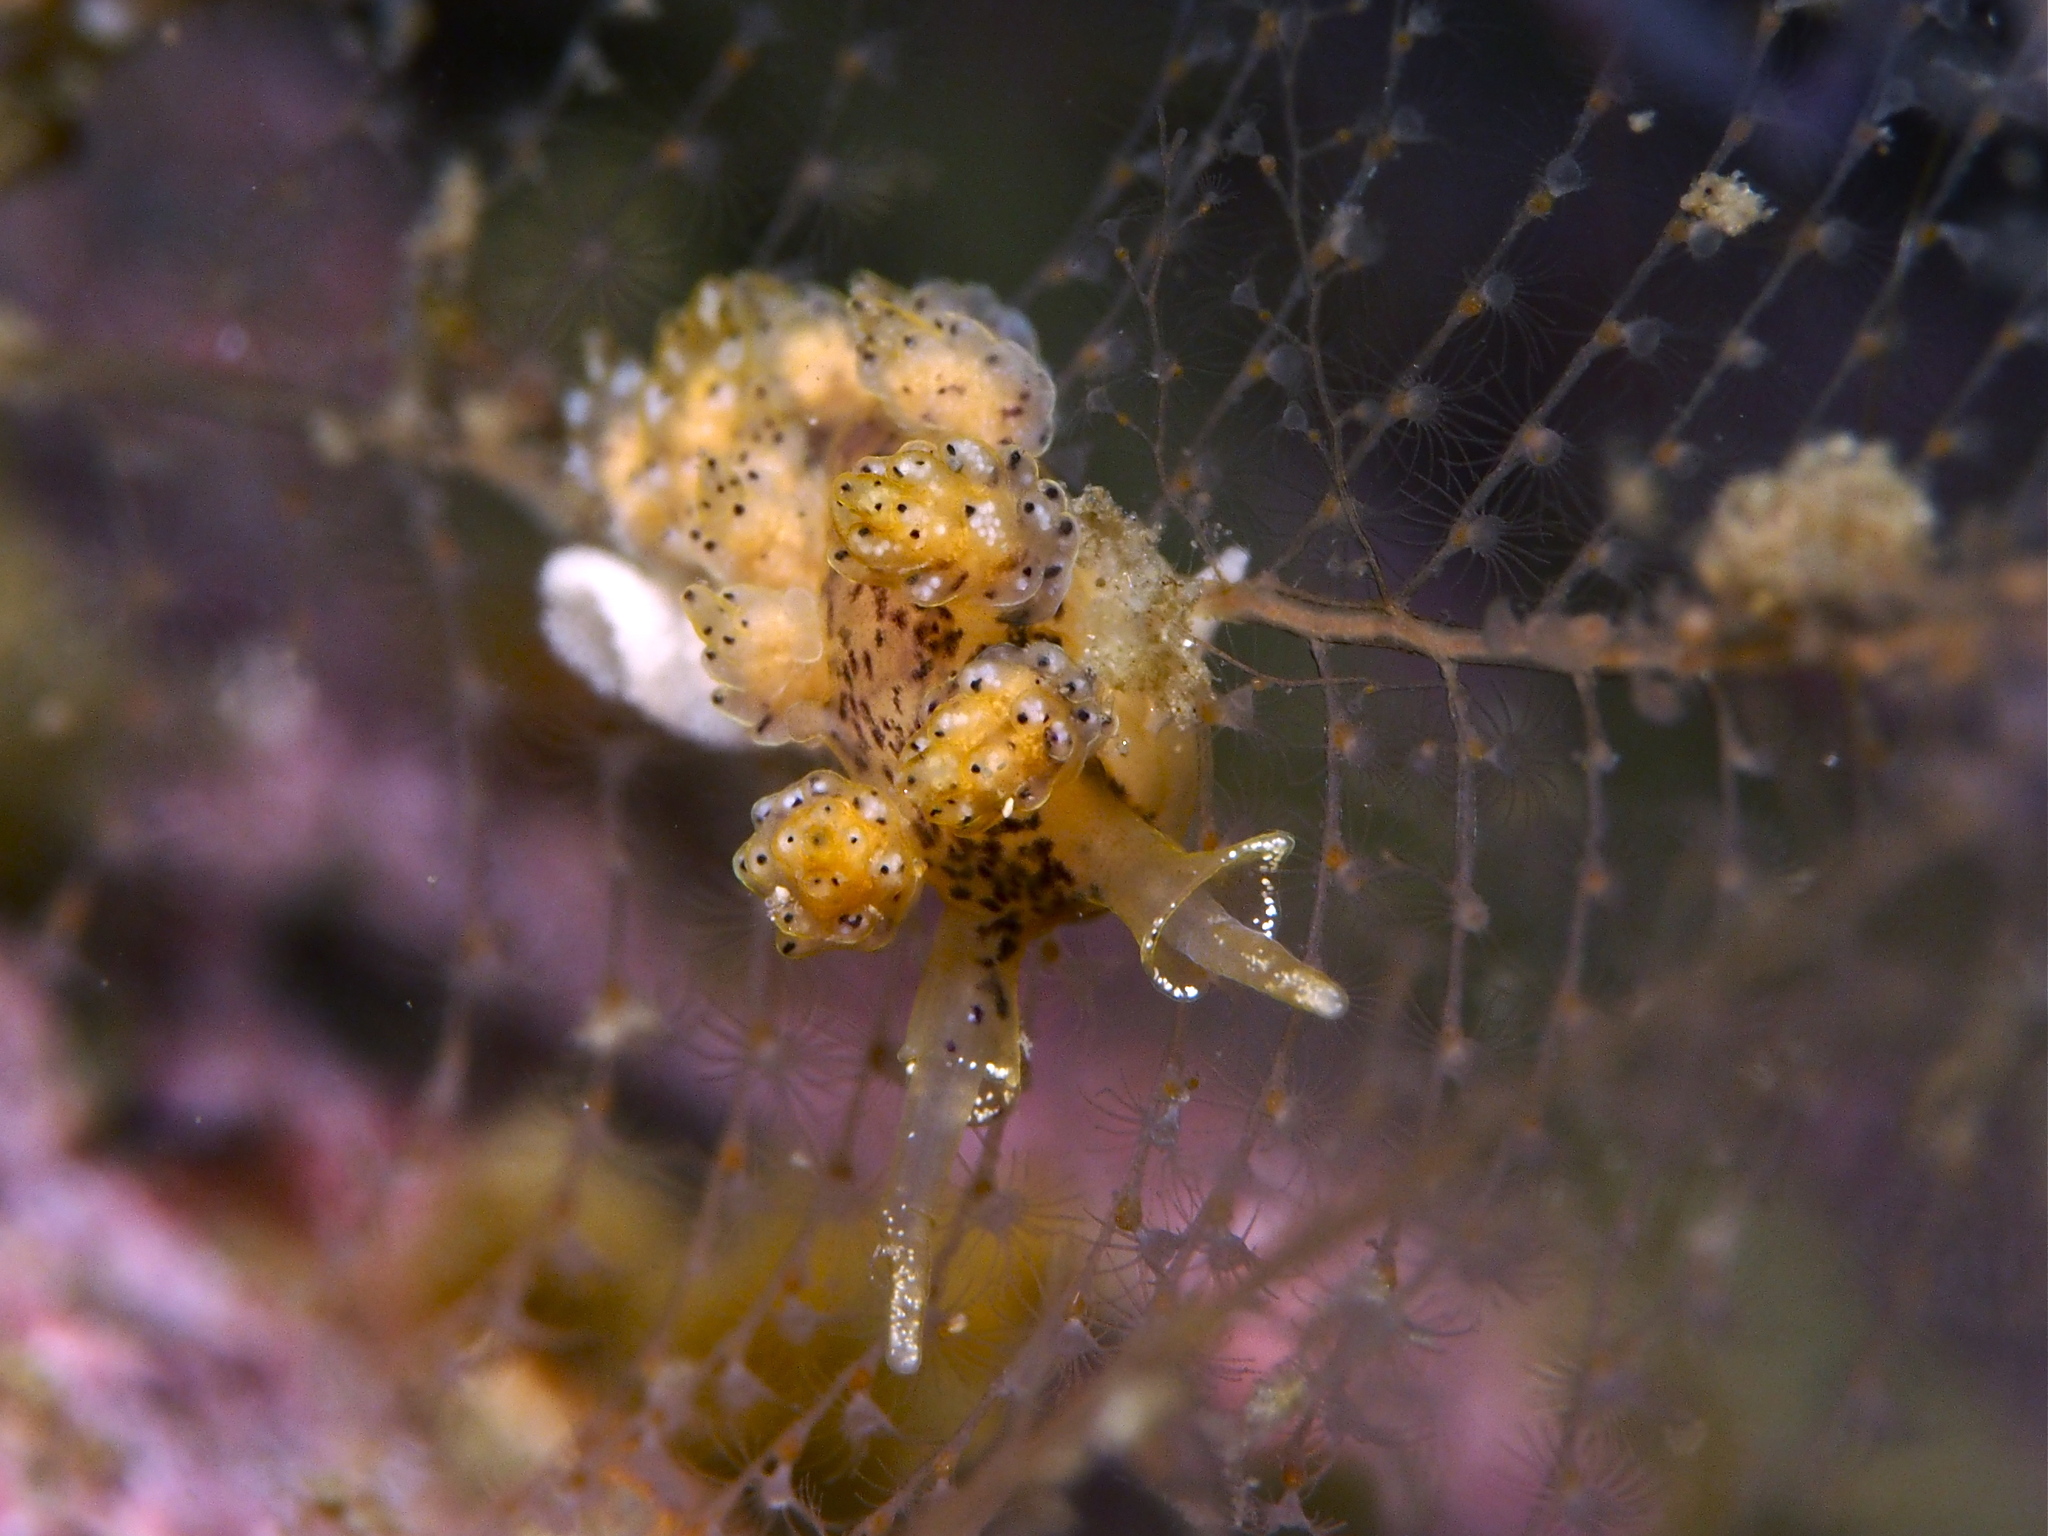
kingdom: Animalia
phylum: Mollusca
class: Gastropoda
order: Nudibranchia
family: Dotidae
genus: Doto
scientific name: Doto dunnei
